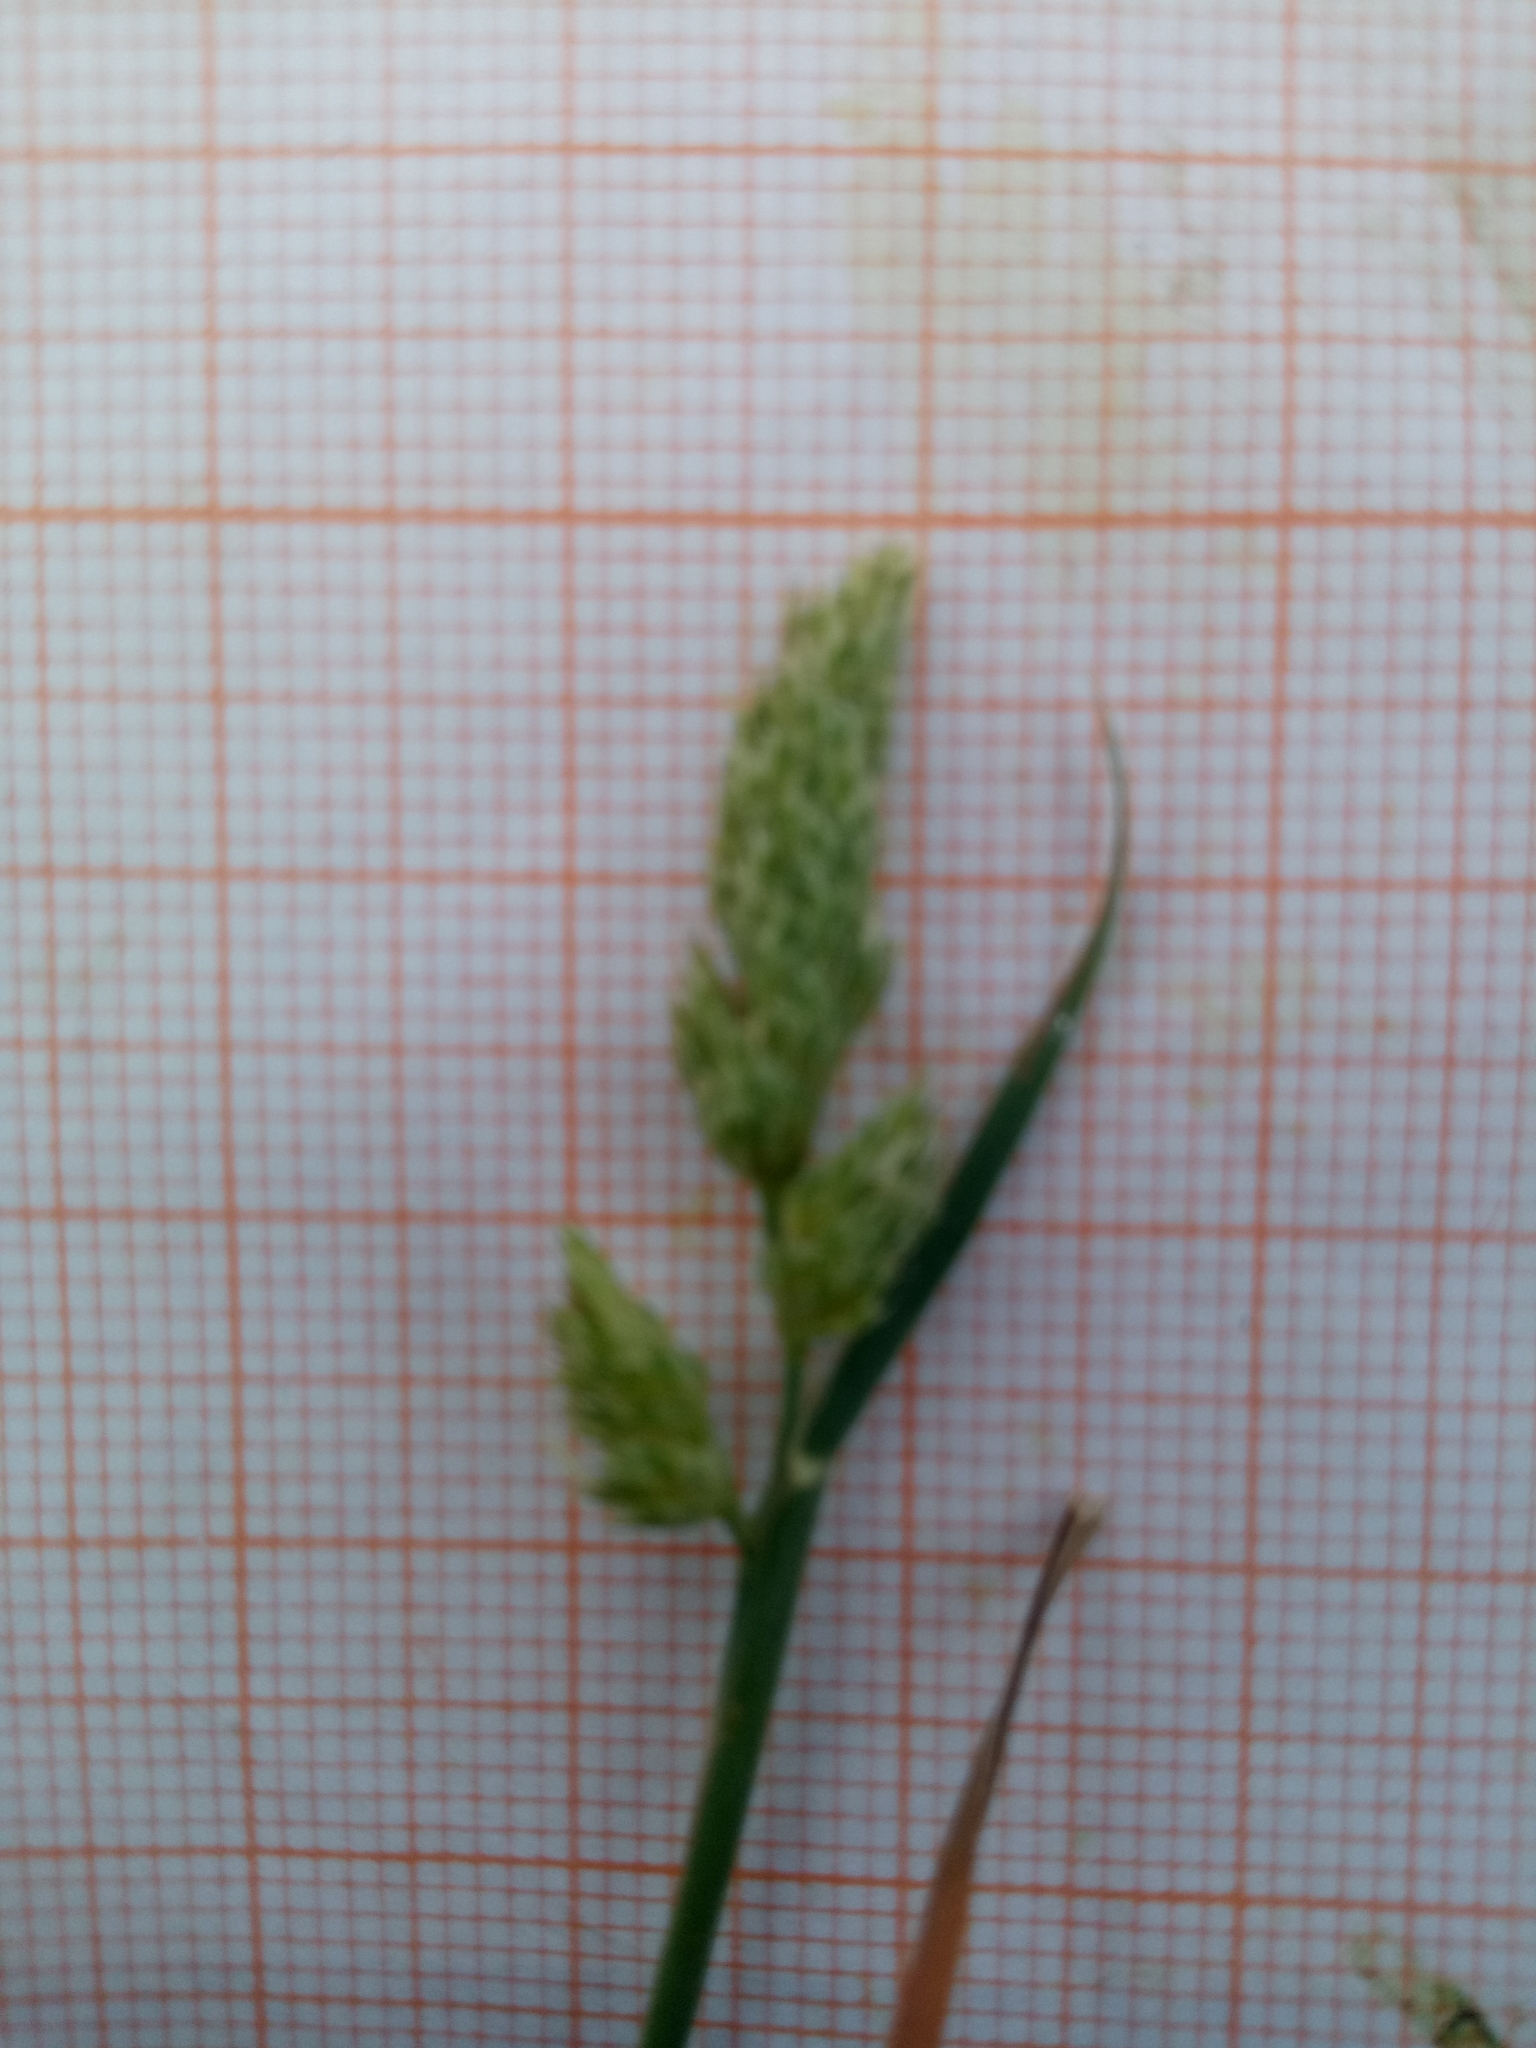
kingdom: Plantae
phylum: Tracheophyta
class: Liliopsida
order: Poales
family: Poaceae
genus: Dactylis
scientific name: Dactylis glomerata
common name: Orchardgrass
